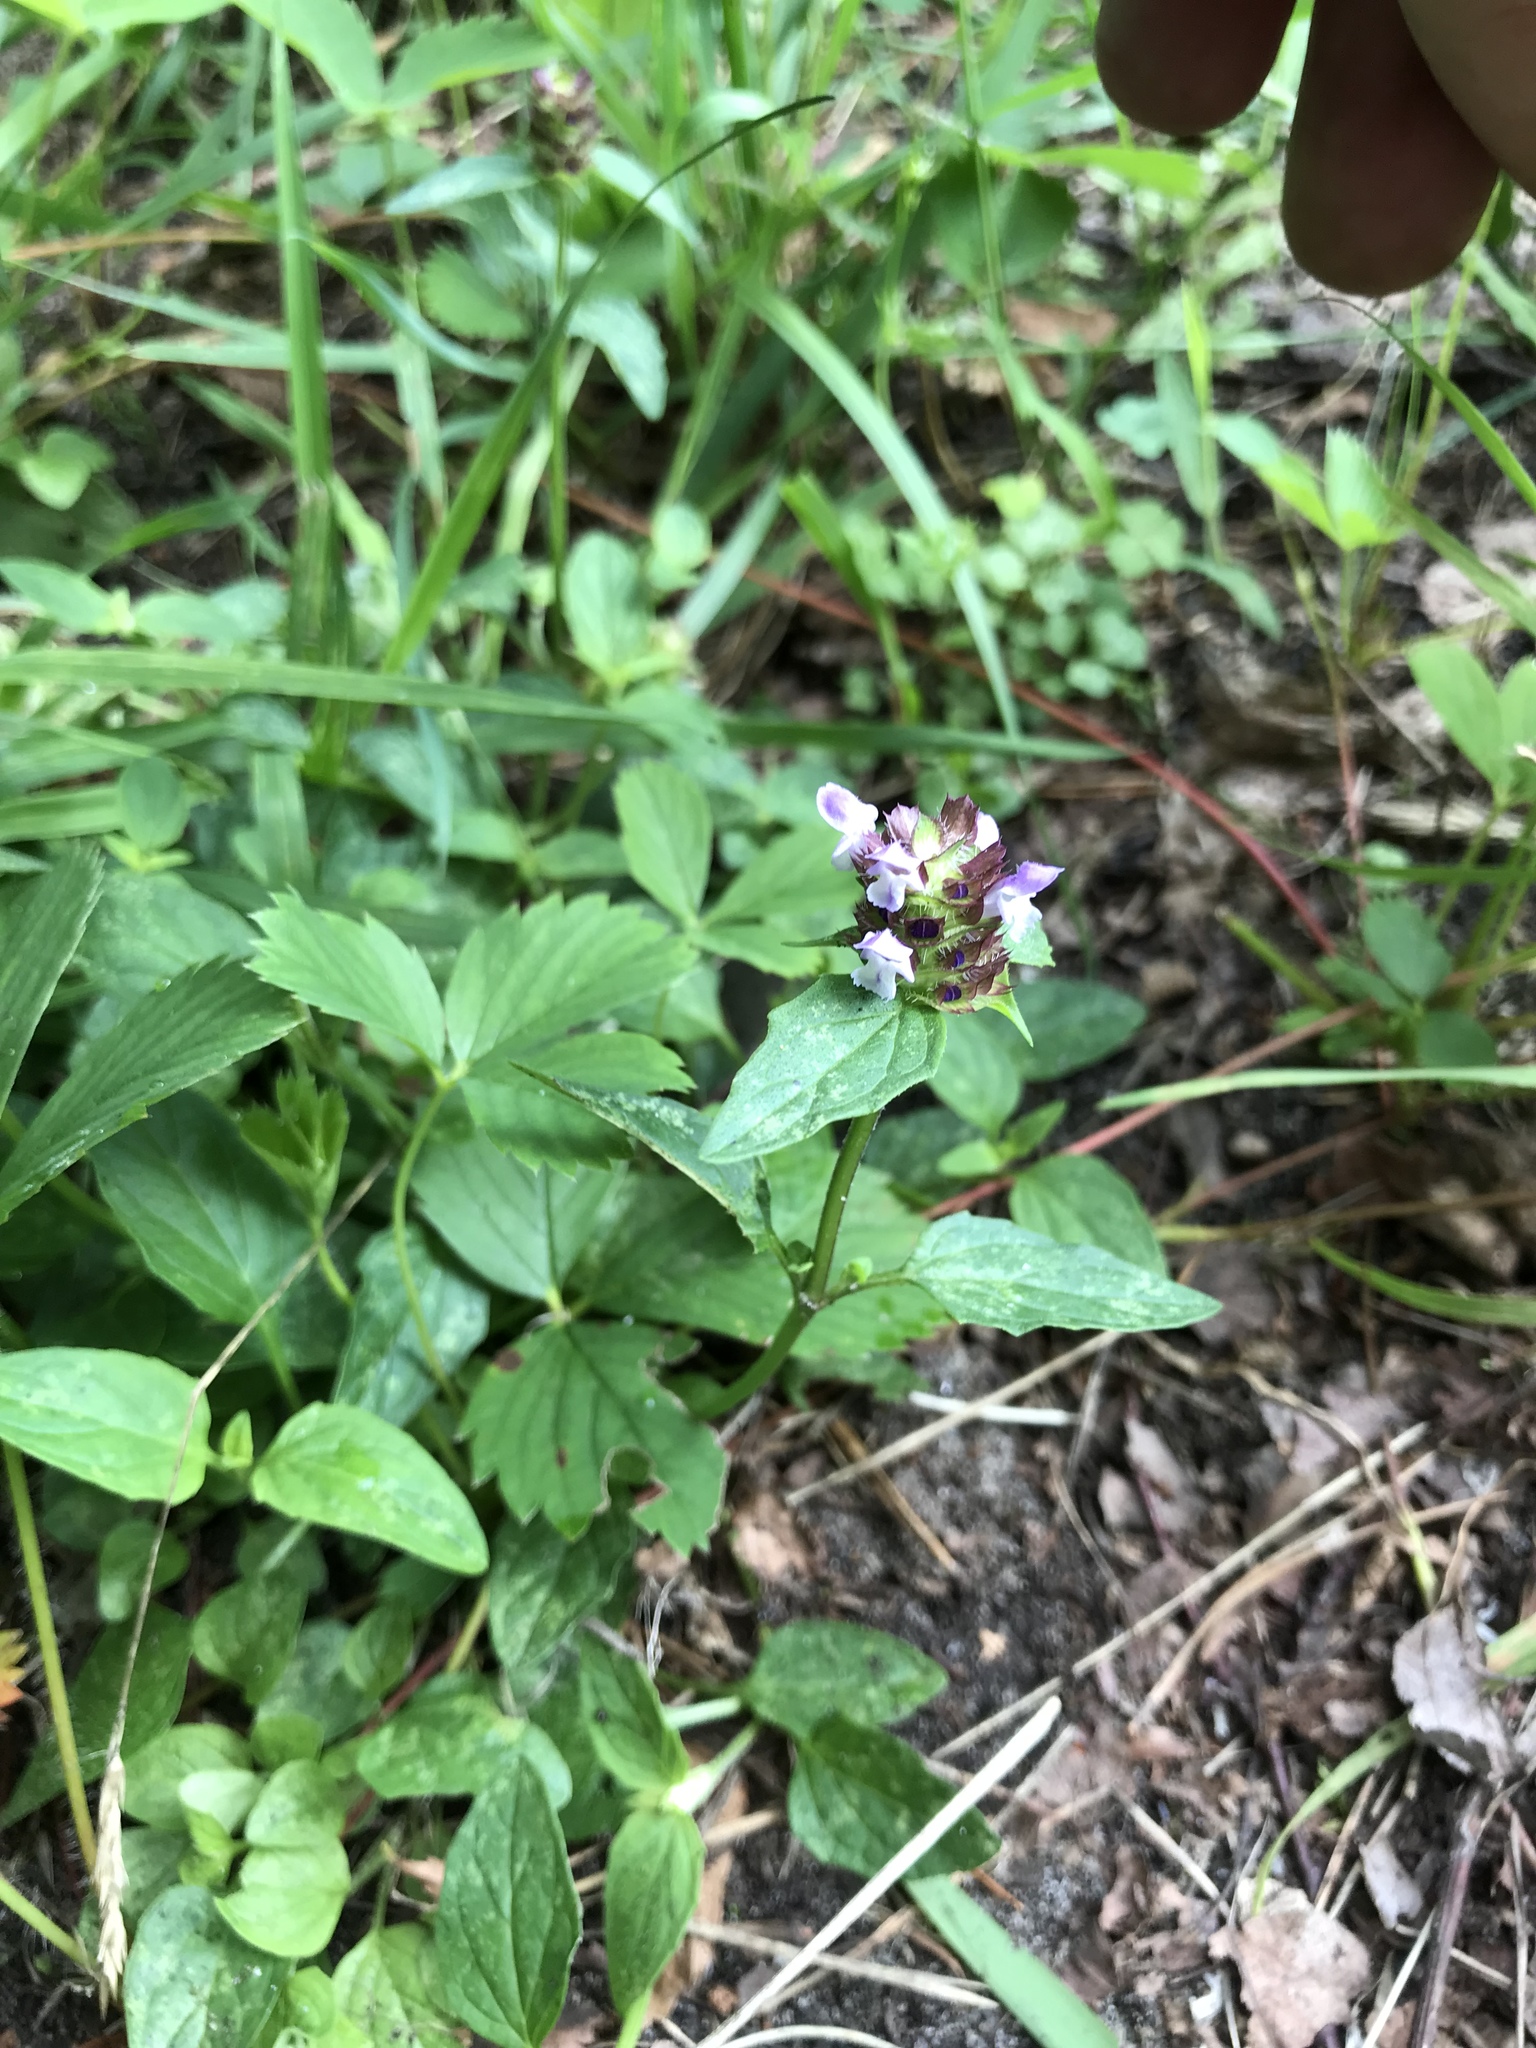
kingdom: Plantae
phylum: Tracheophyta
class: Magnoliopsida
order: Lamiales
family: Lamiaceae
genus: Prunella
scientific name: Prunella vulgaris
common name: Heal-all
